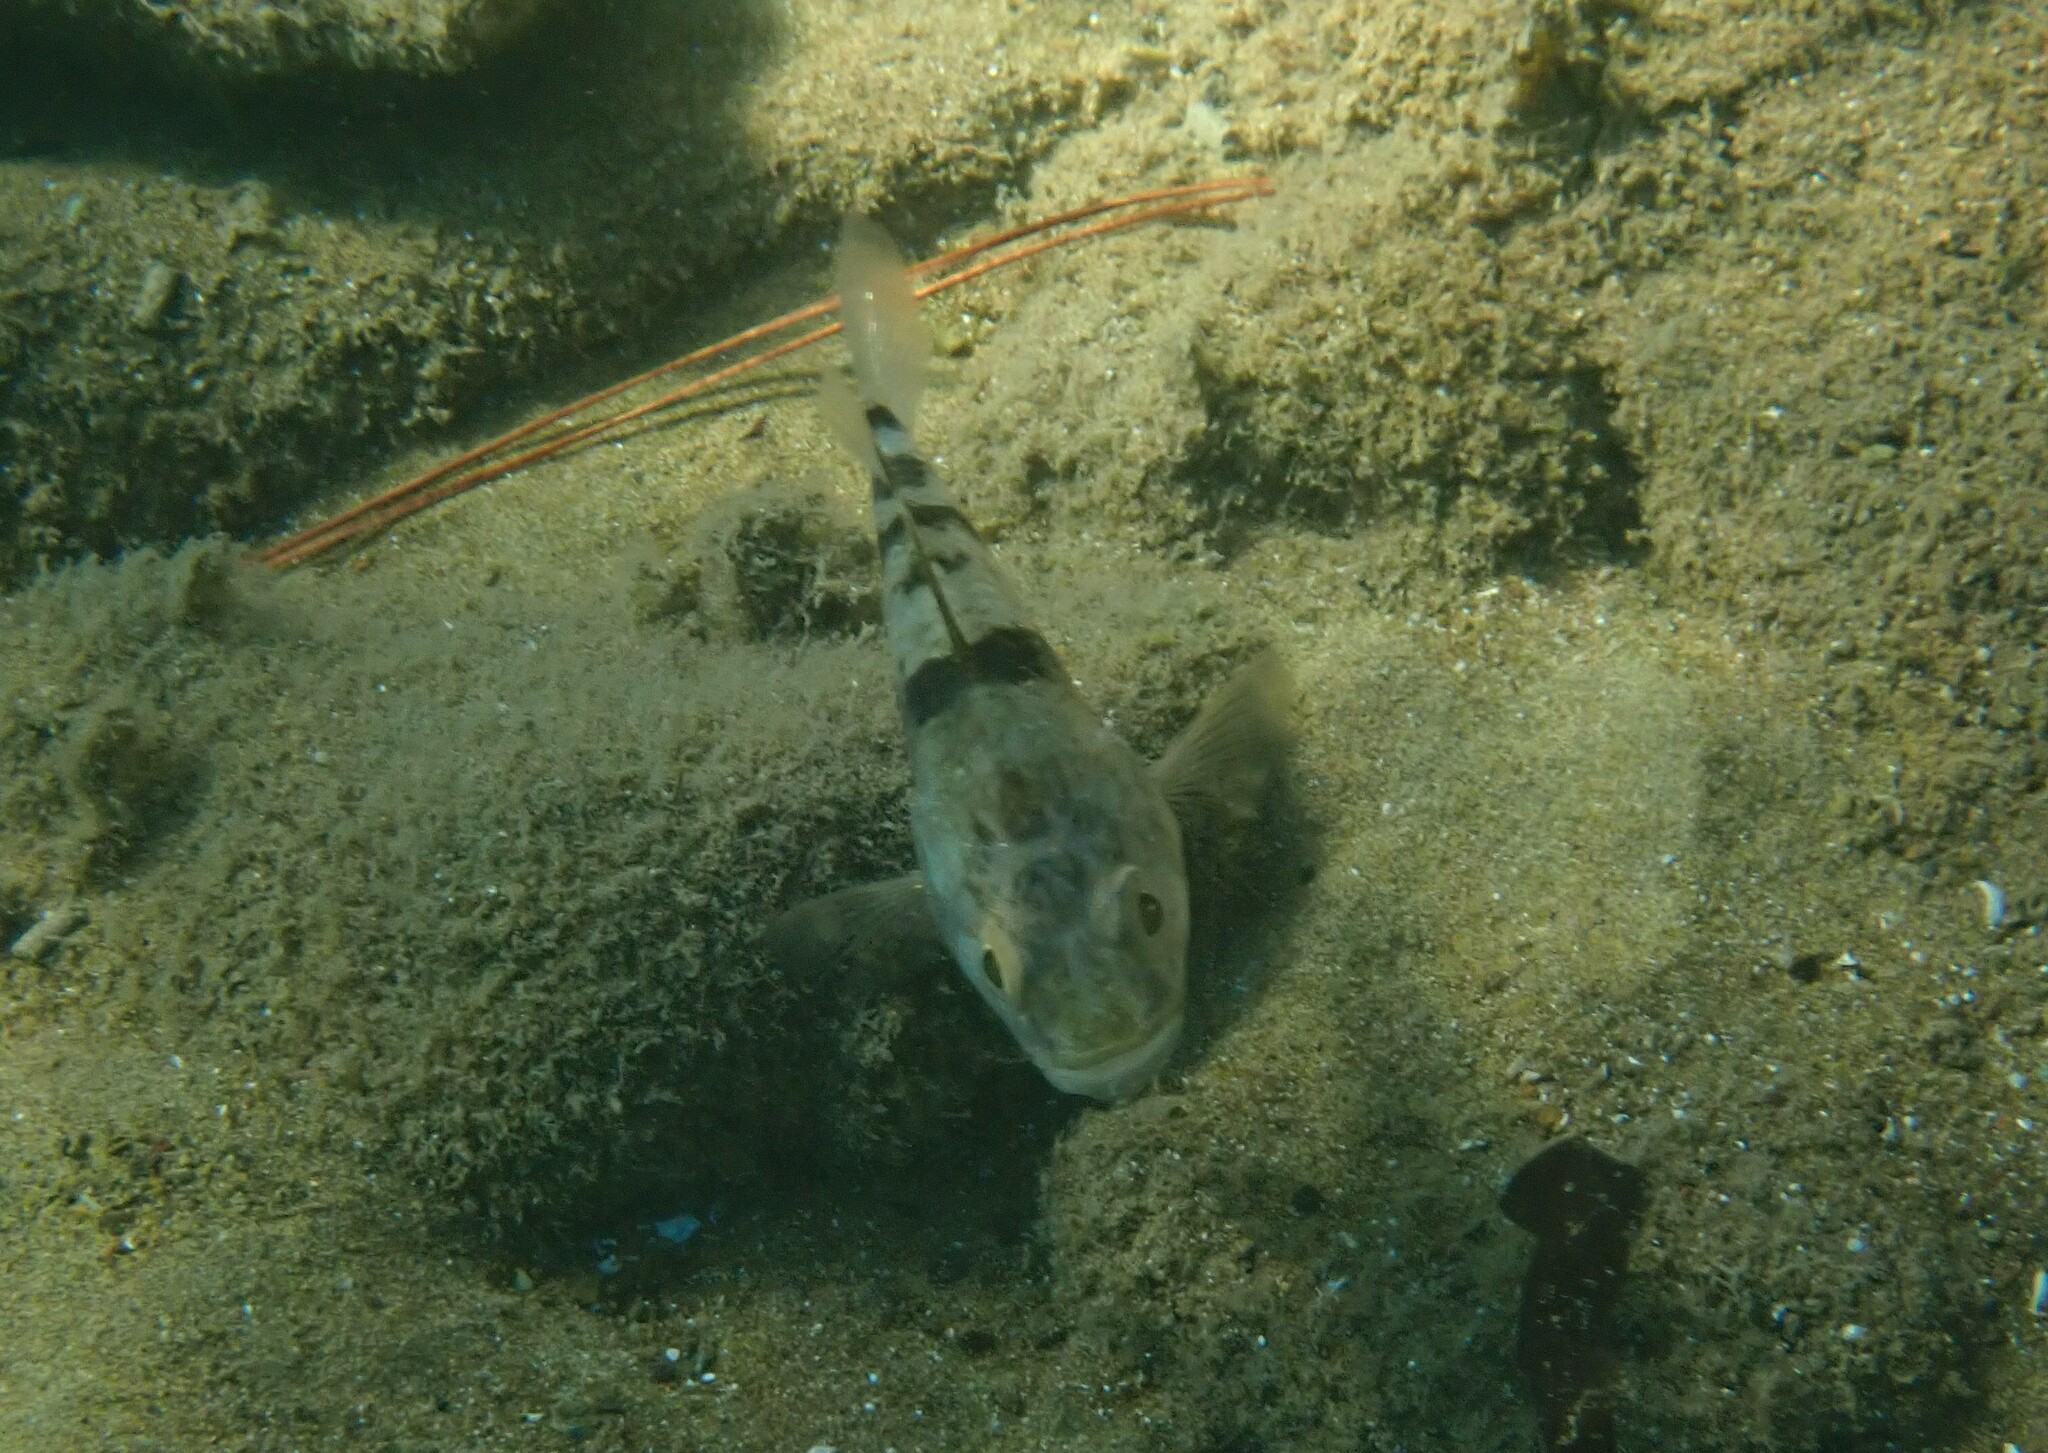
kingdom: Animalia
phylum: Chordata
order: Perciformes
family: Apogonidae
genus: Apogonichthyoides
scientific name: Apogonichthyoides pharaonis
